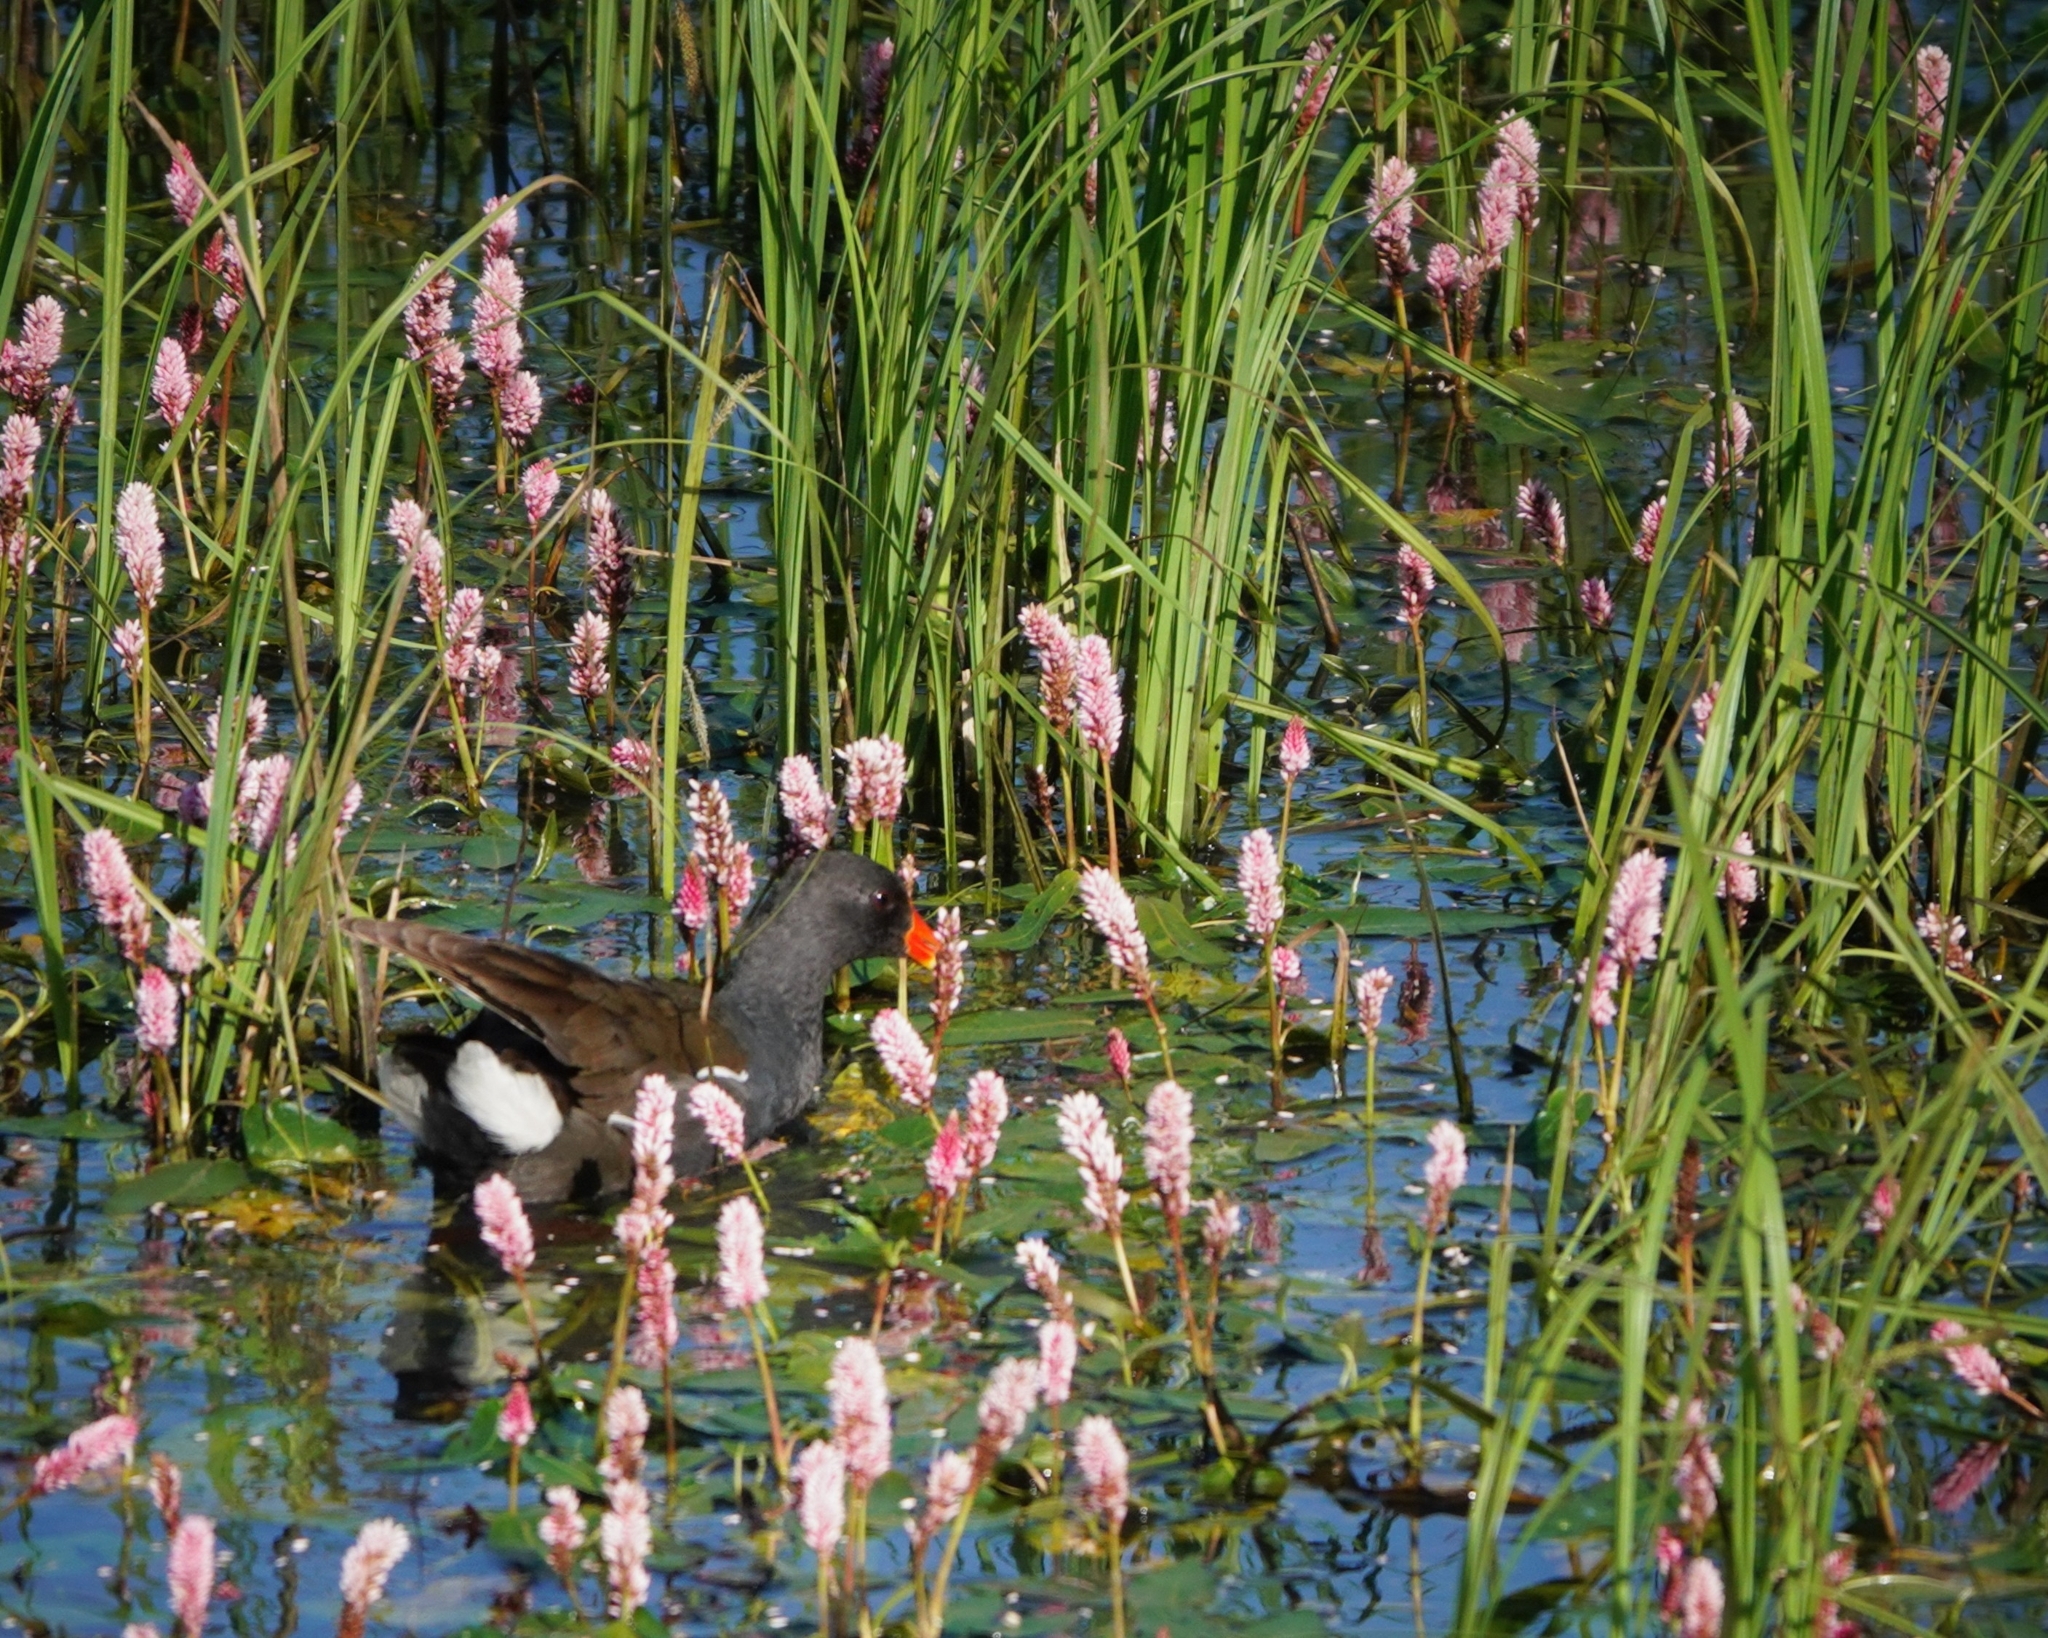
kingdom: Animalia
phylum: Chordata
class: Aves
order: Gruiformes
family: Rallidae
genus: Gallinula
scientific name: Gallinula chloropus
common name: Common moorhen
